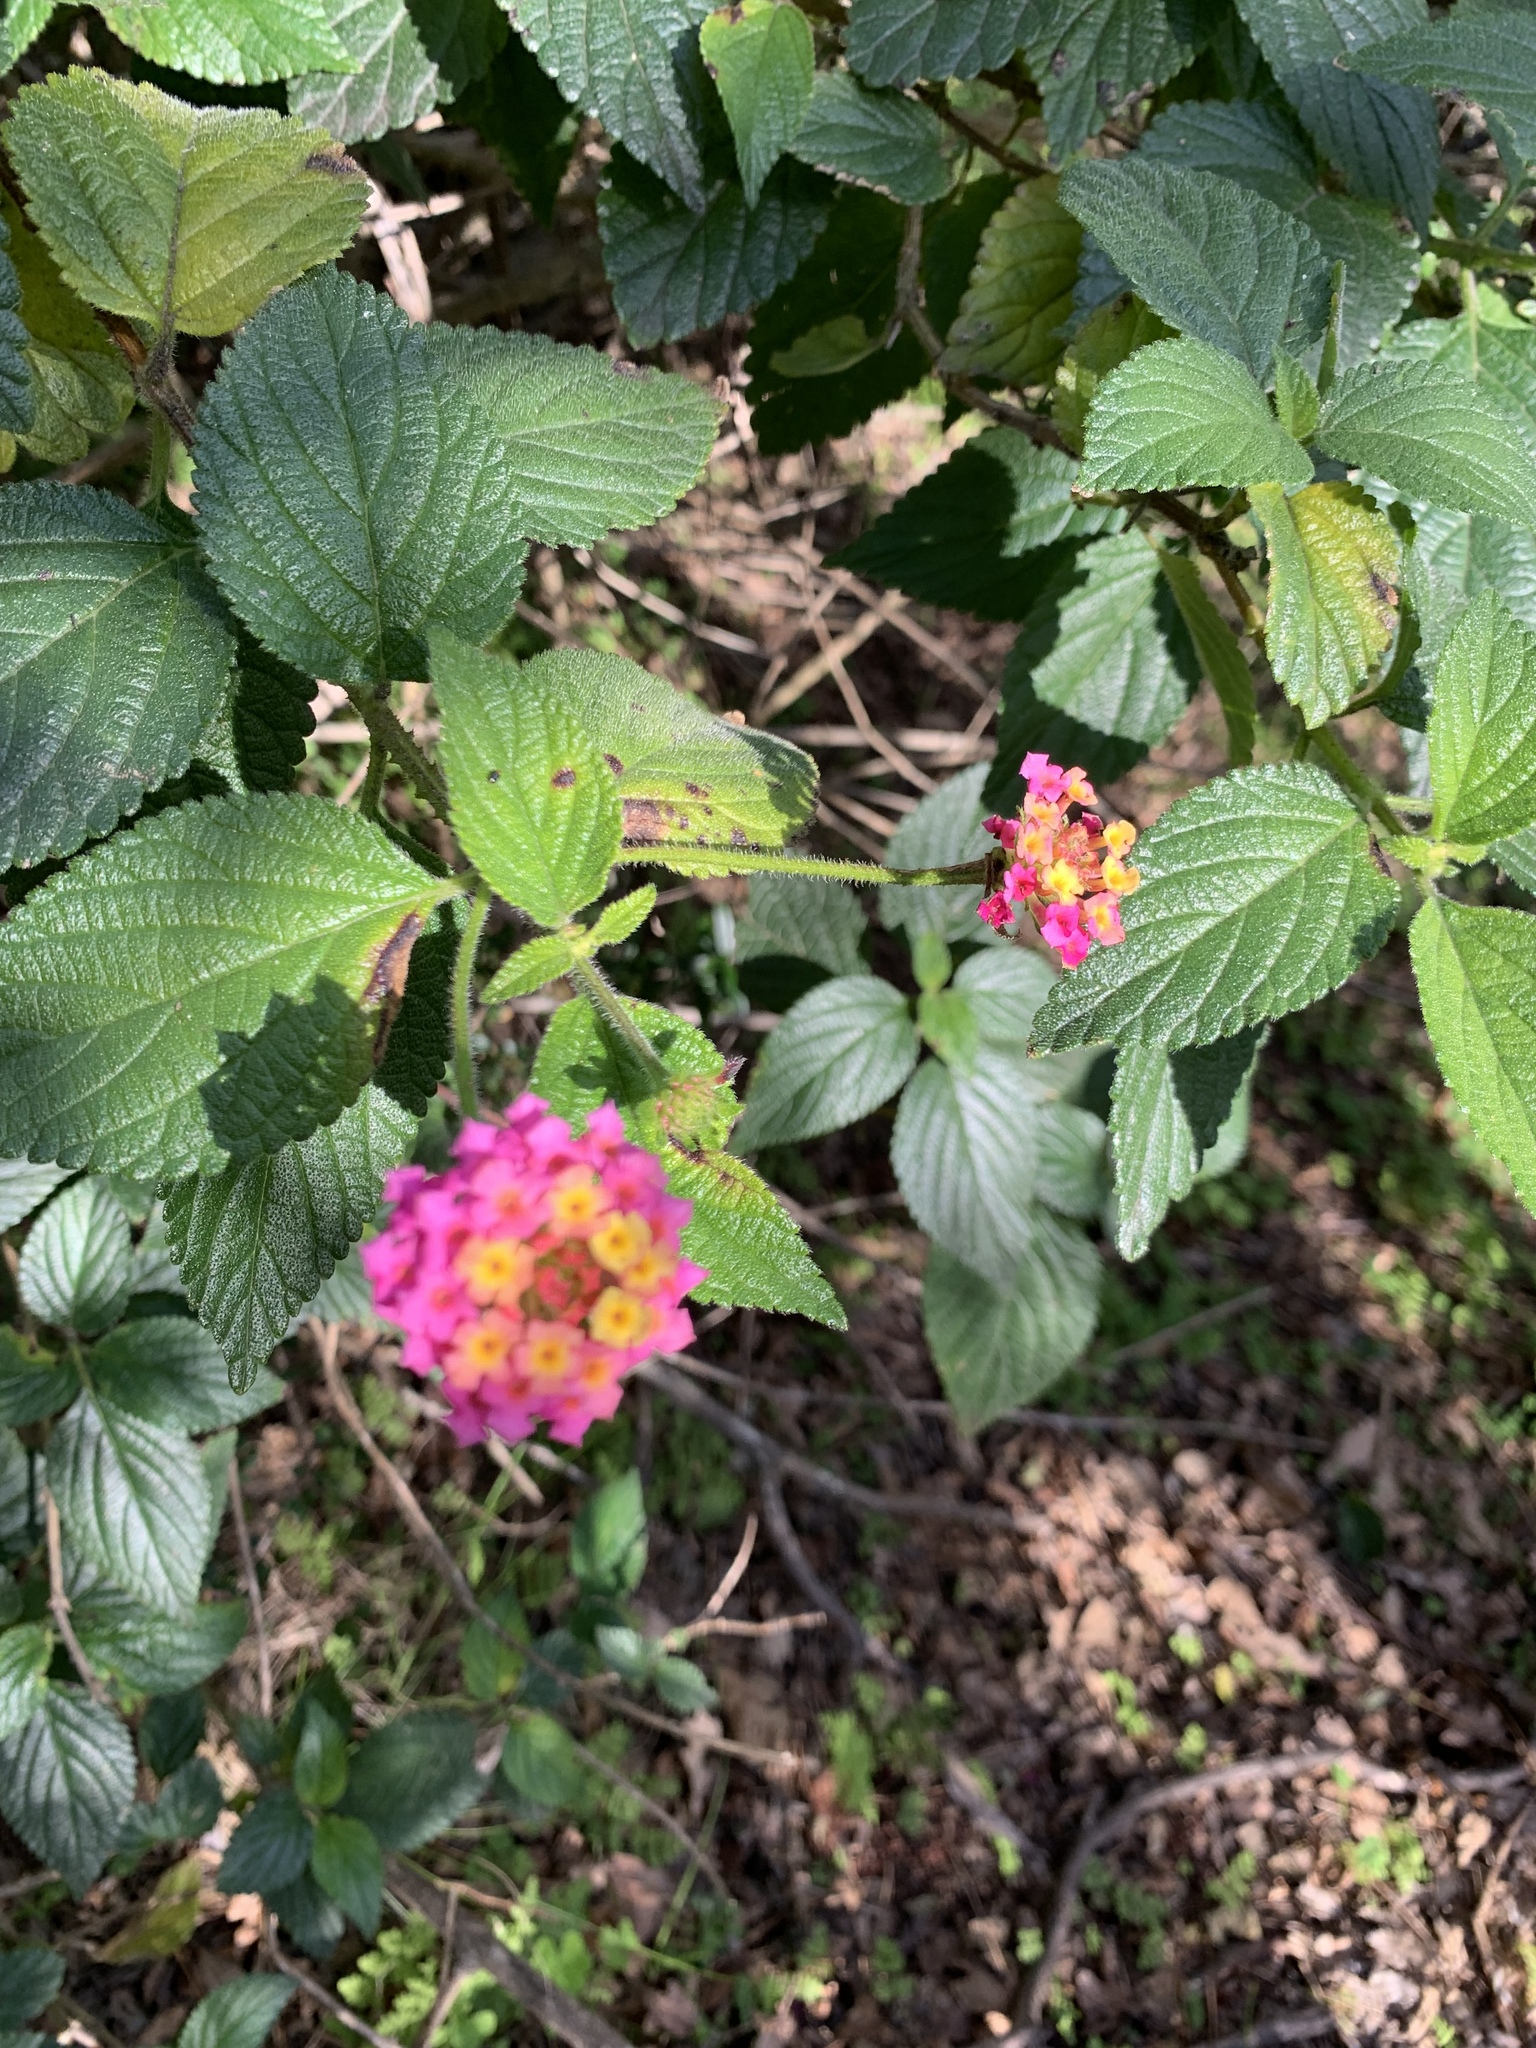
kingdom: Plantae
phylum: Tracheophyta
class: Magnoliopsida
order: Lamiales
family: Verbenaceae
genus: Lantana
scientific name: Lantana camara
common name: Lantana
